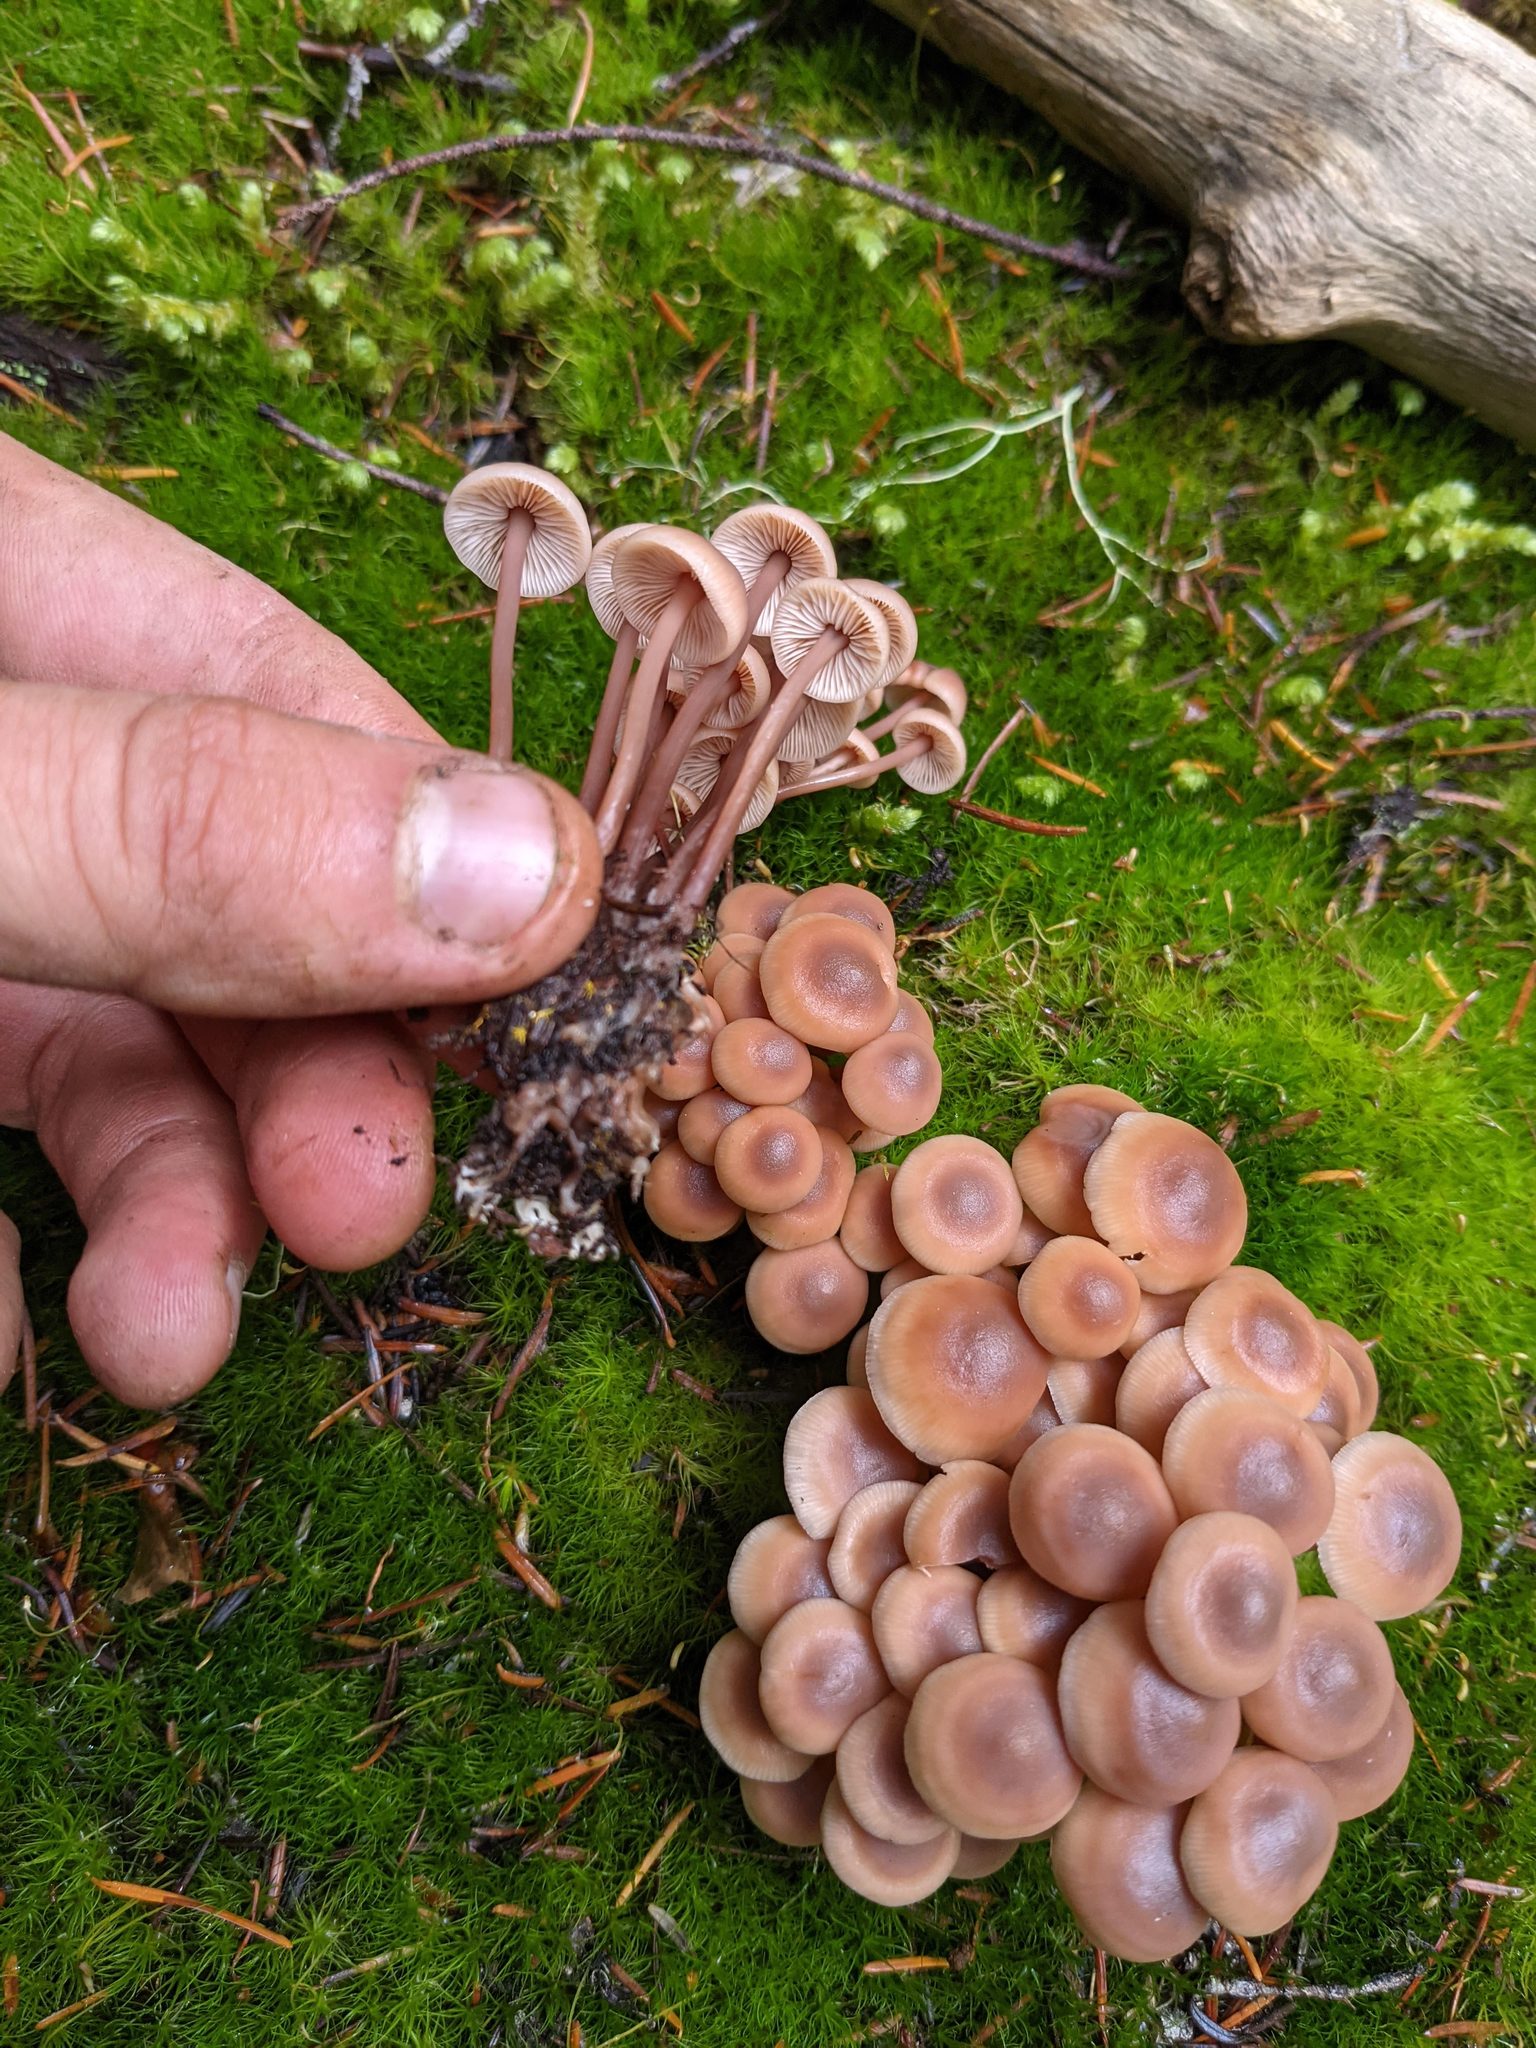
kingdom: Fungi
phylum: Basidiomycota
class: Agaricomycetes
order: Agaricales
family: Omphalotaceae
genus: Connopus
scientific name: Connopus acervatus
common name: Cluster cap
